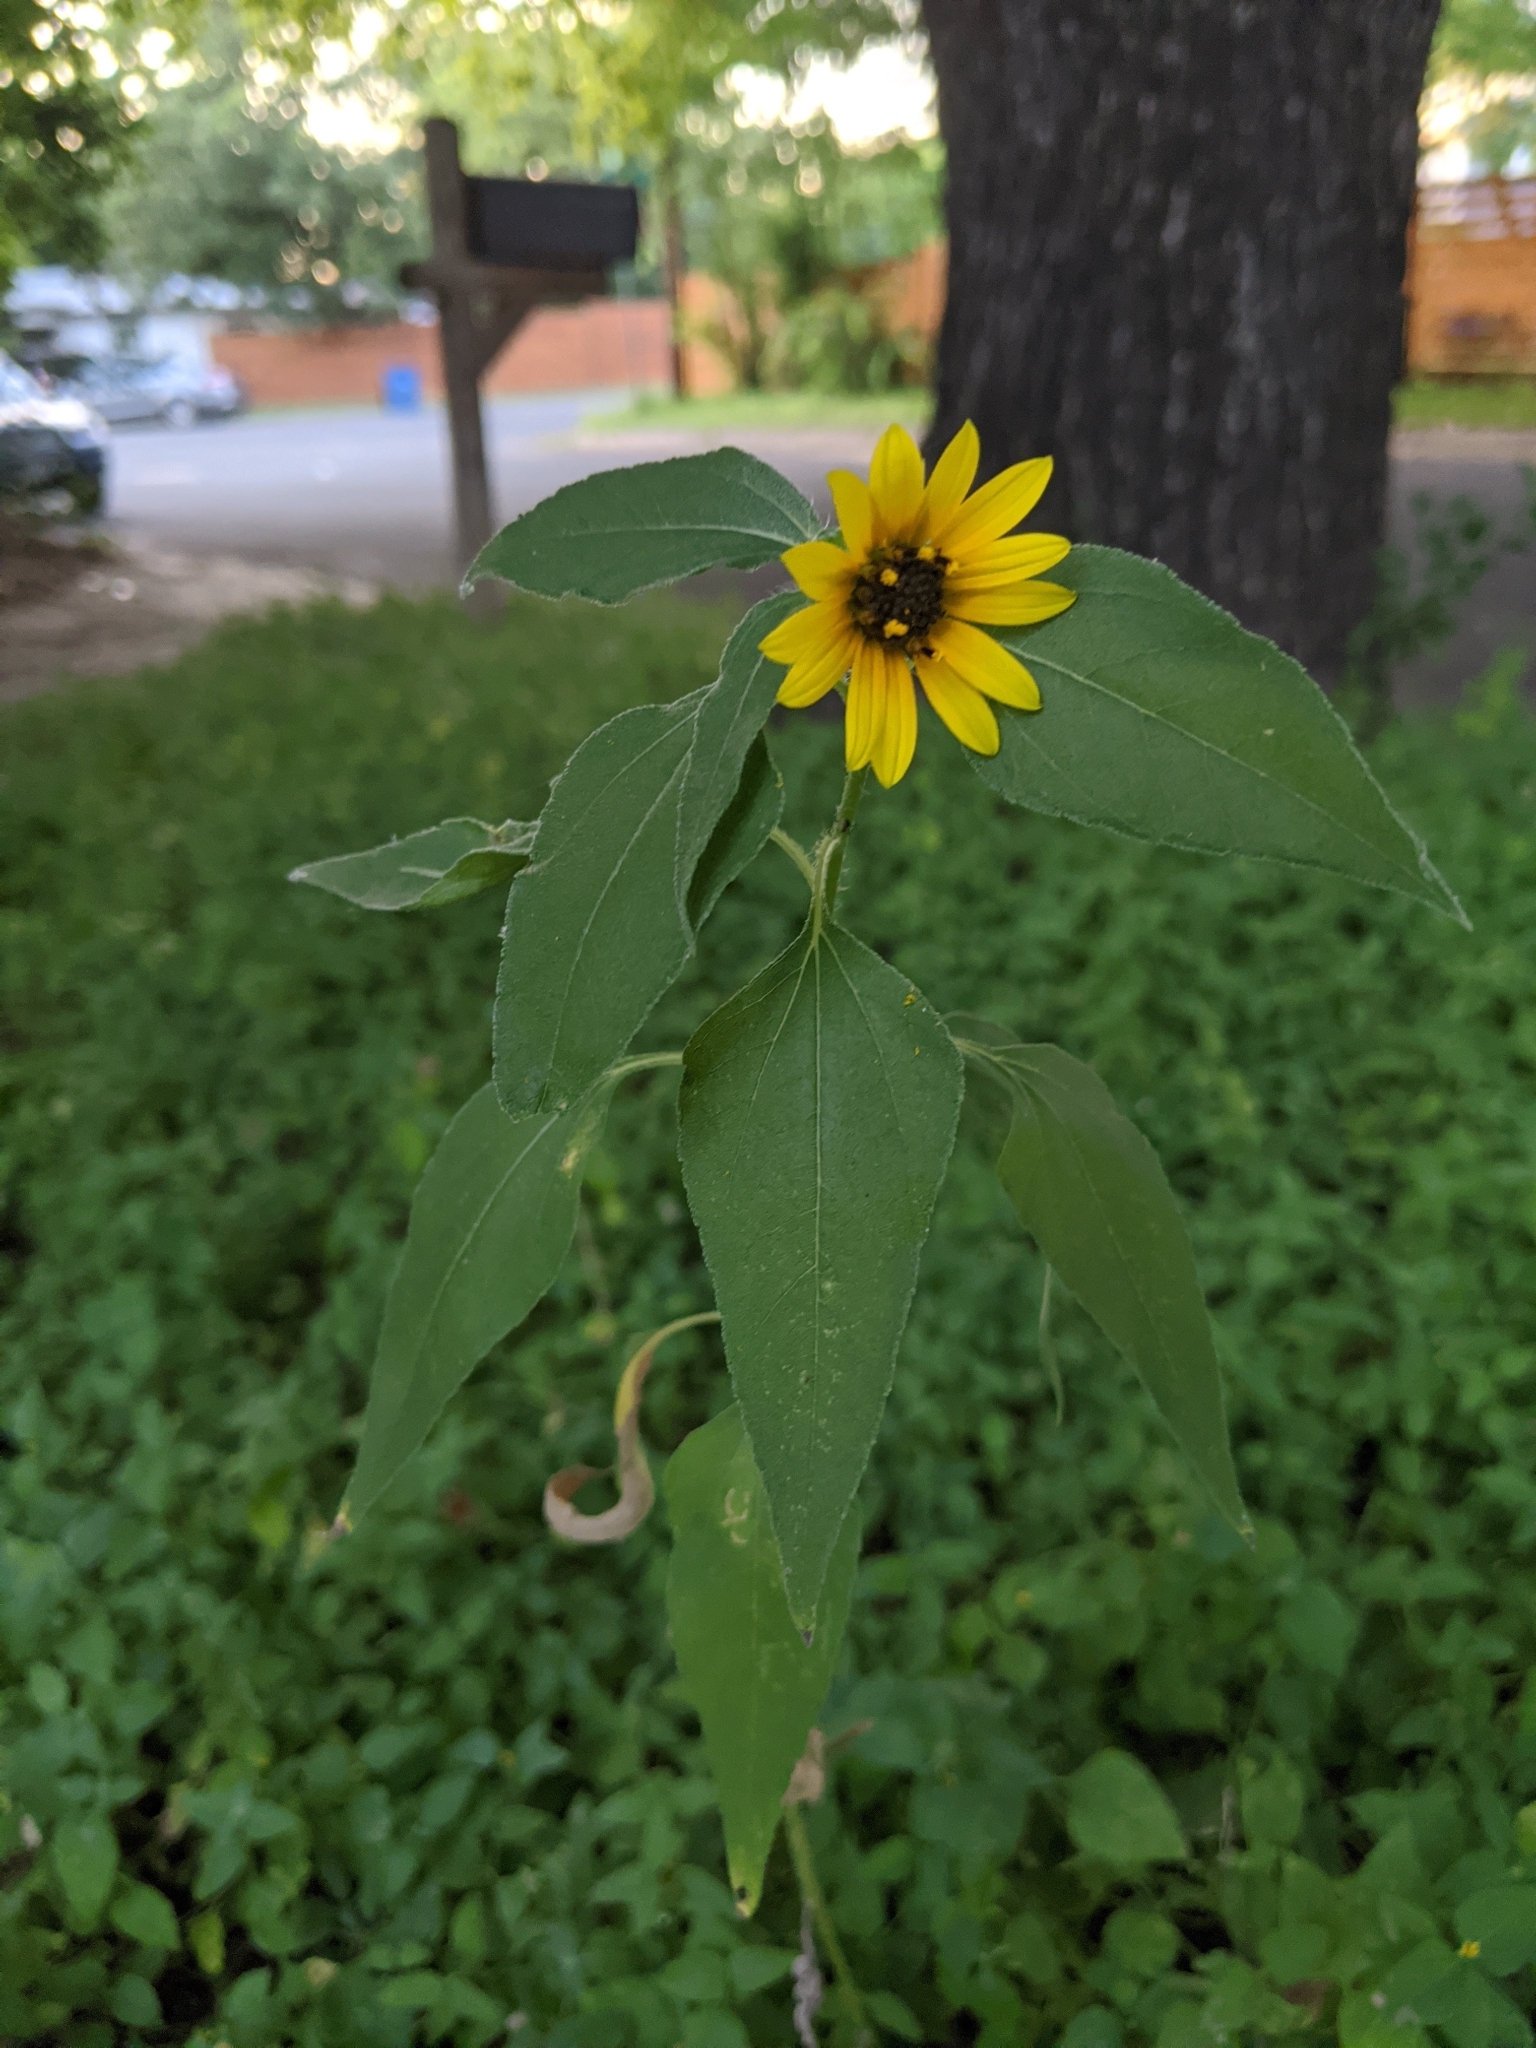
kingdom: Plantae
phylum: Tracheophyta
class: Magnoliopsida
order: Asterales
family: Asteraceae
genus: Helianthus
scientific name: Helianthus annuus
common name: Sunflower
